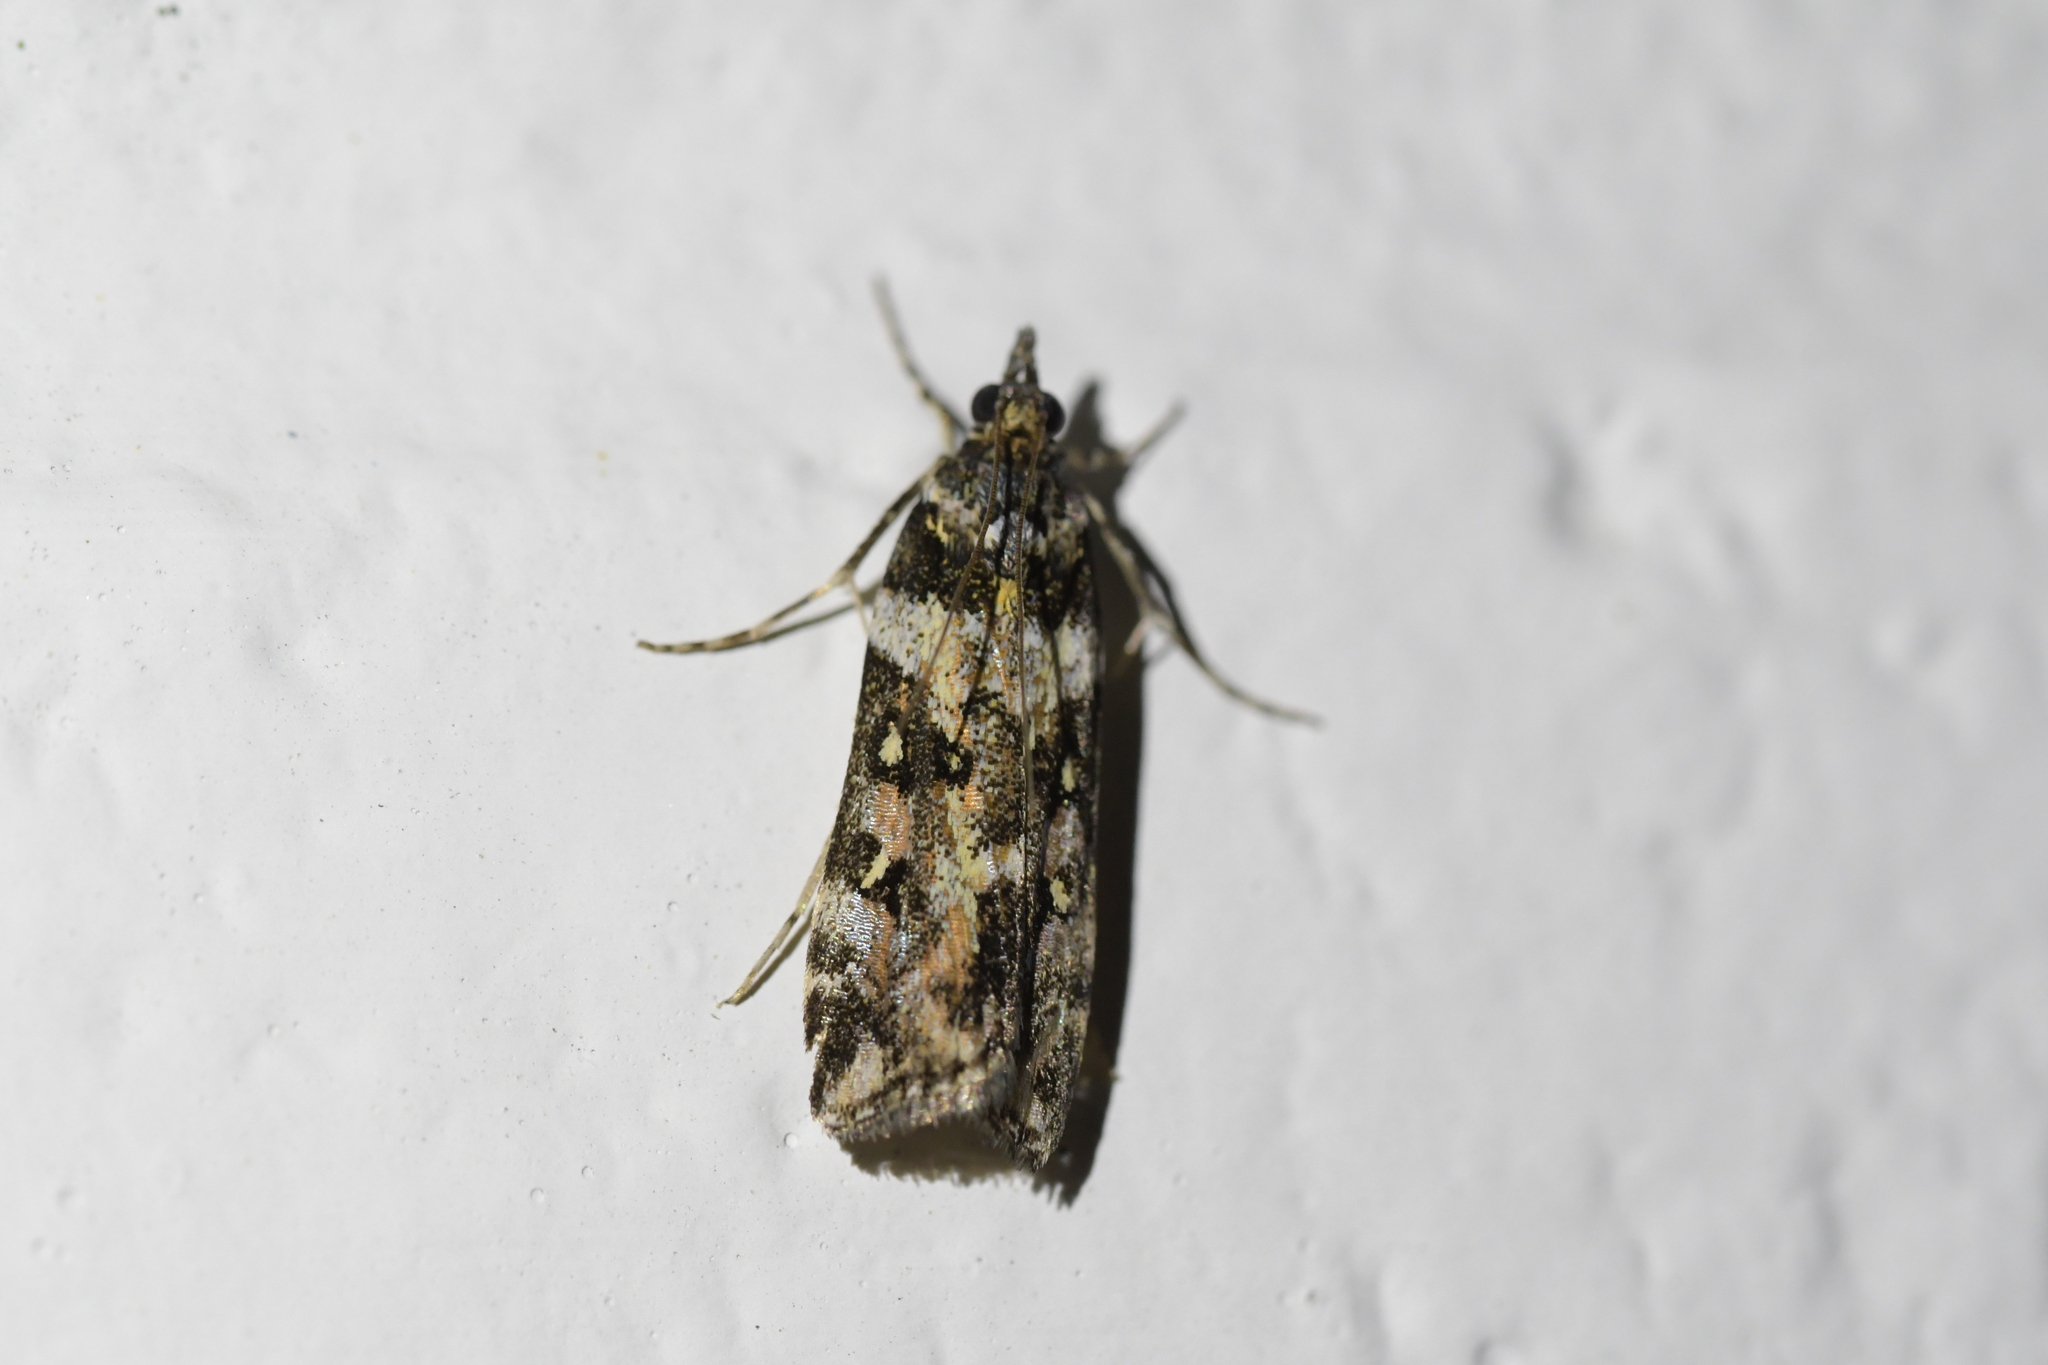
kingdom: Animalia
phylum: Arthropoda
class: Insecta
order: Lepidoptera
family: Crambidae
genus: Eudonia
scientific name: Eudonia diphtheralis
